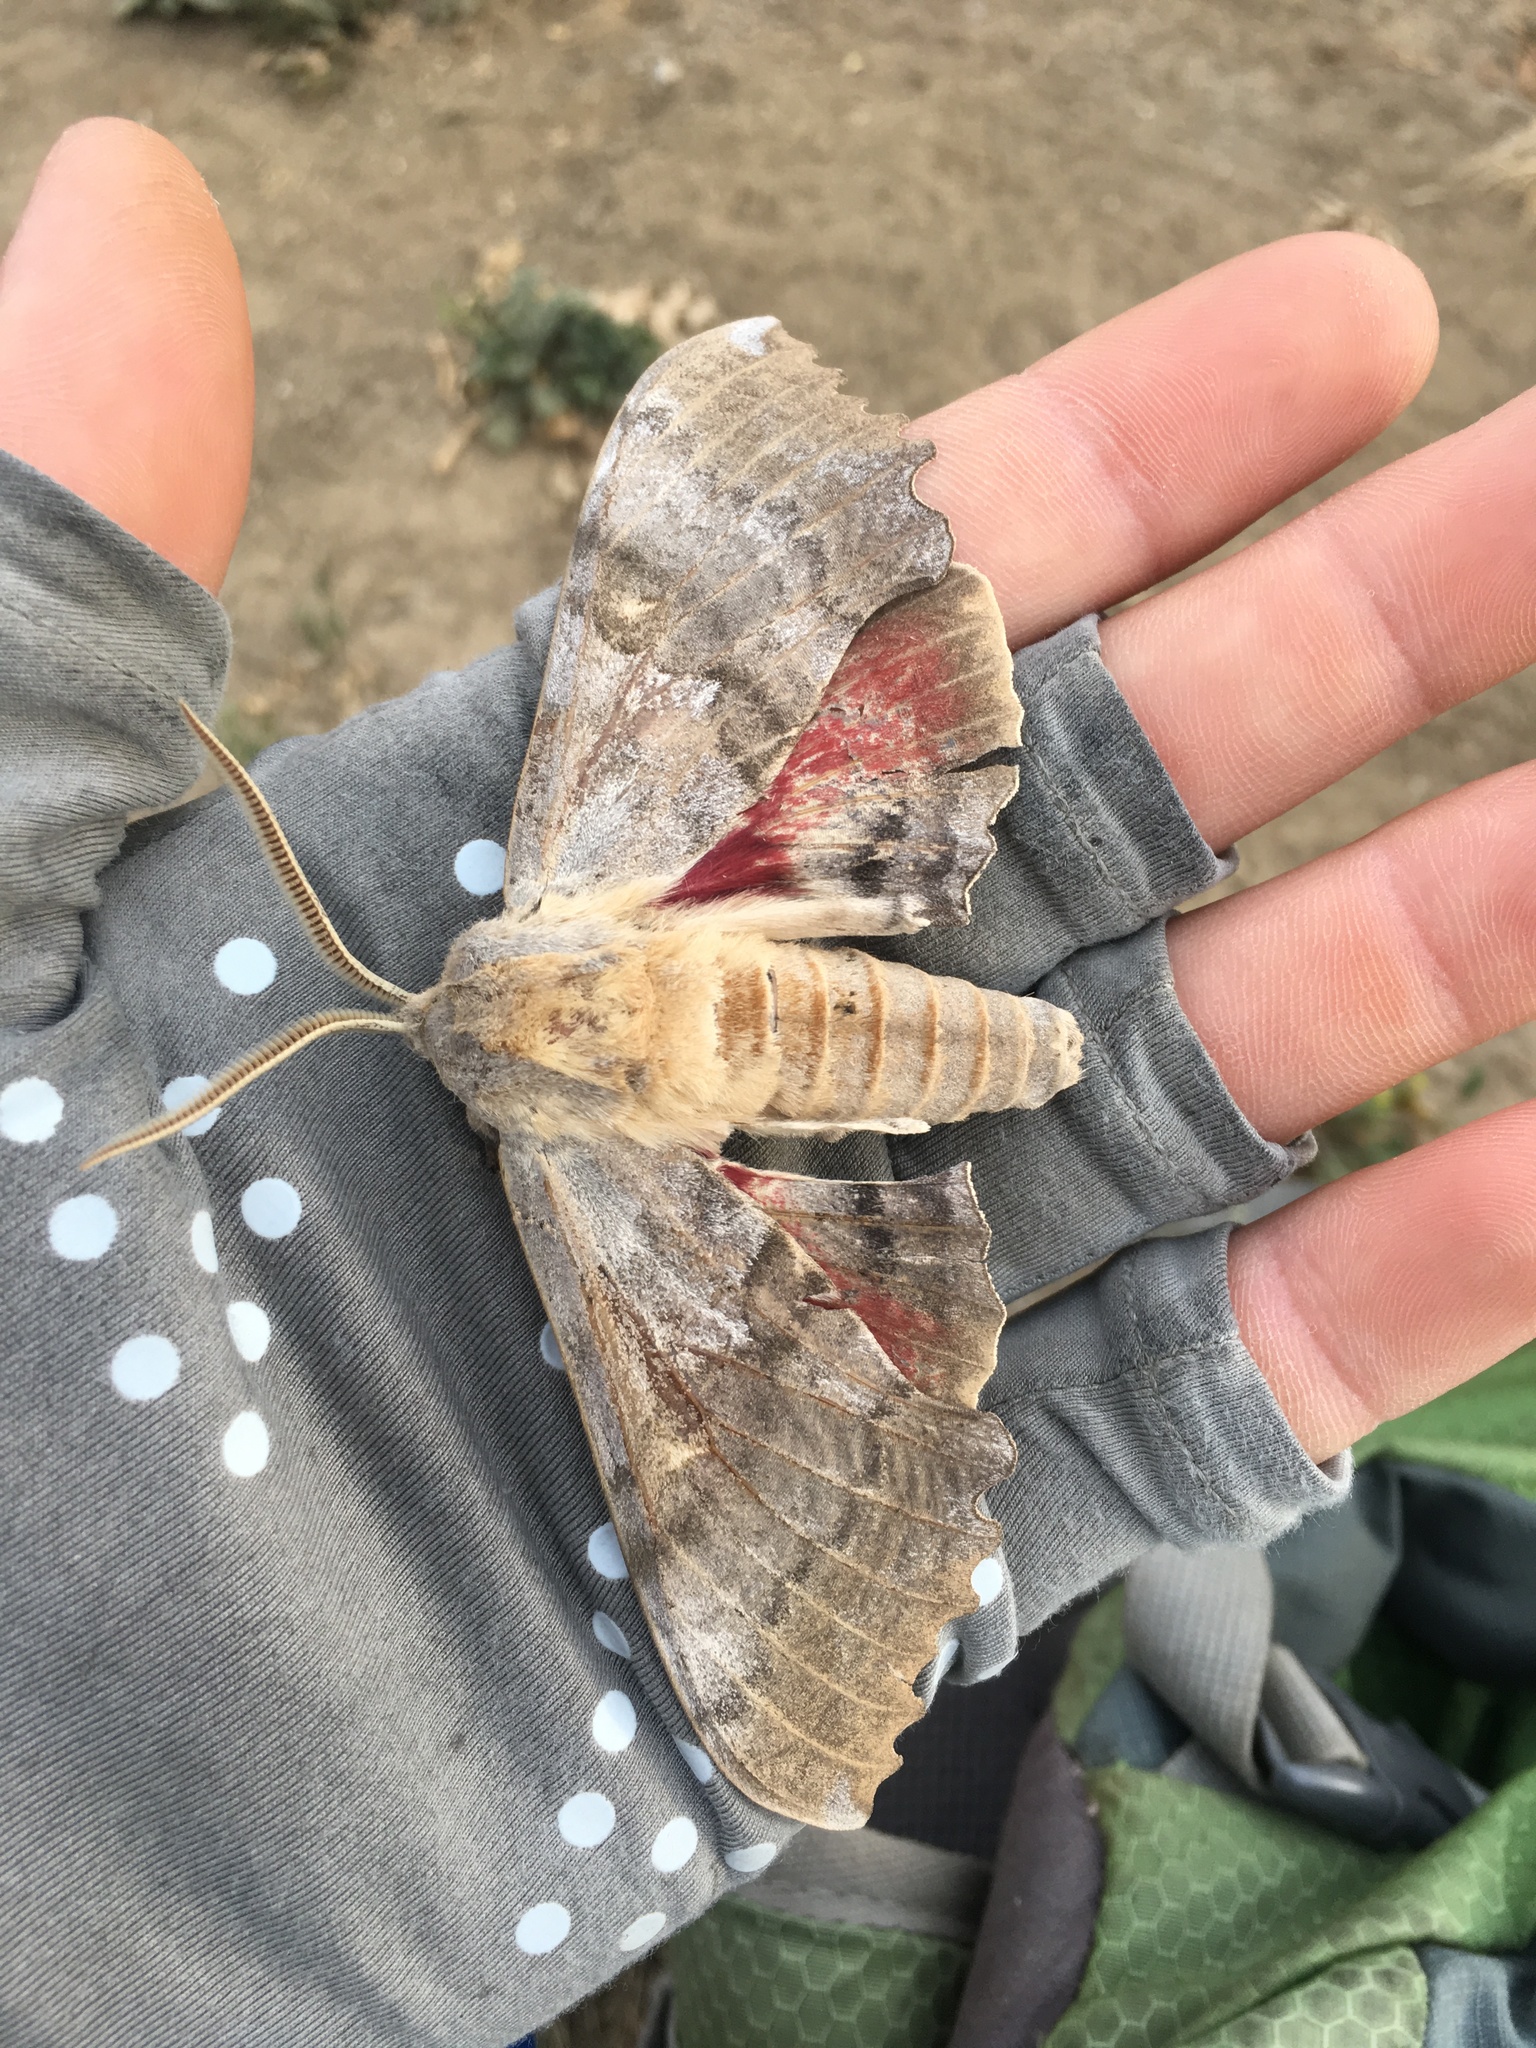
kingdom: Animalia
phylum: Arthropoda
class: Insecta
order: Lepidoptera
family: Sphingidae
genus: Pachysphinx
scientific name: Pachysphinx occidentalis
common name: Western poplar sphinx
